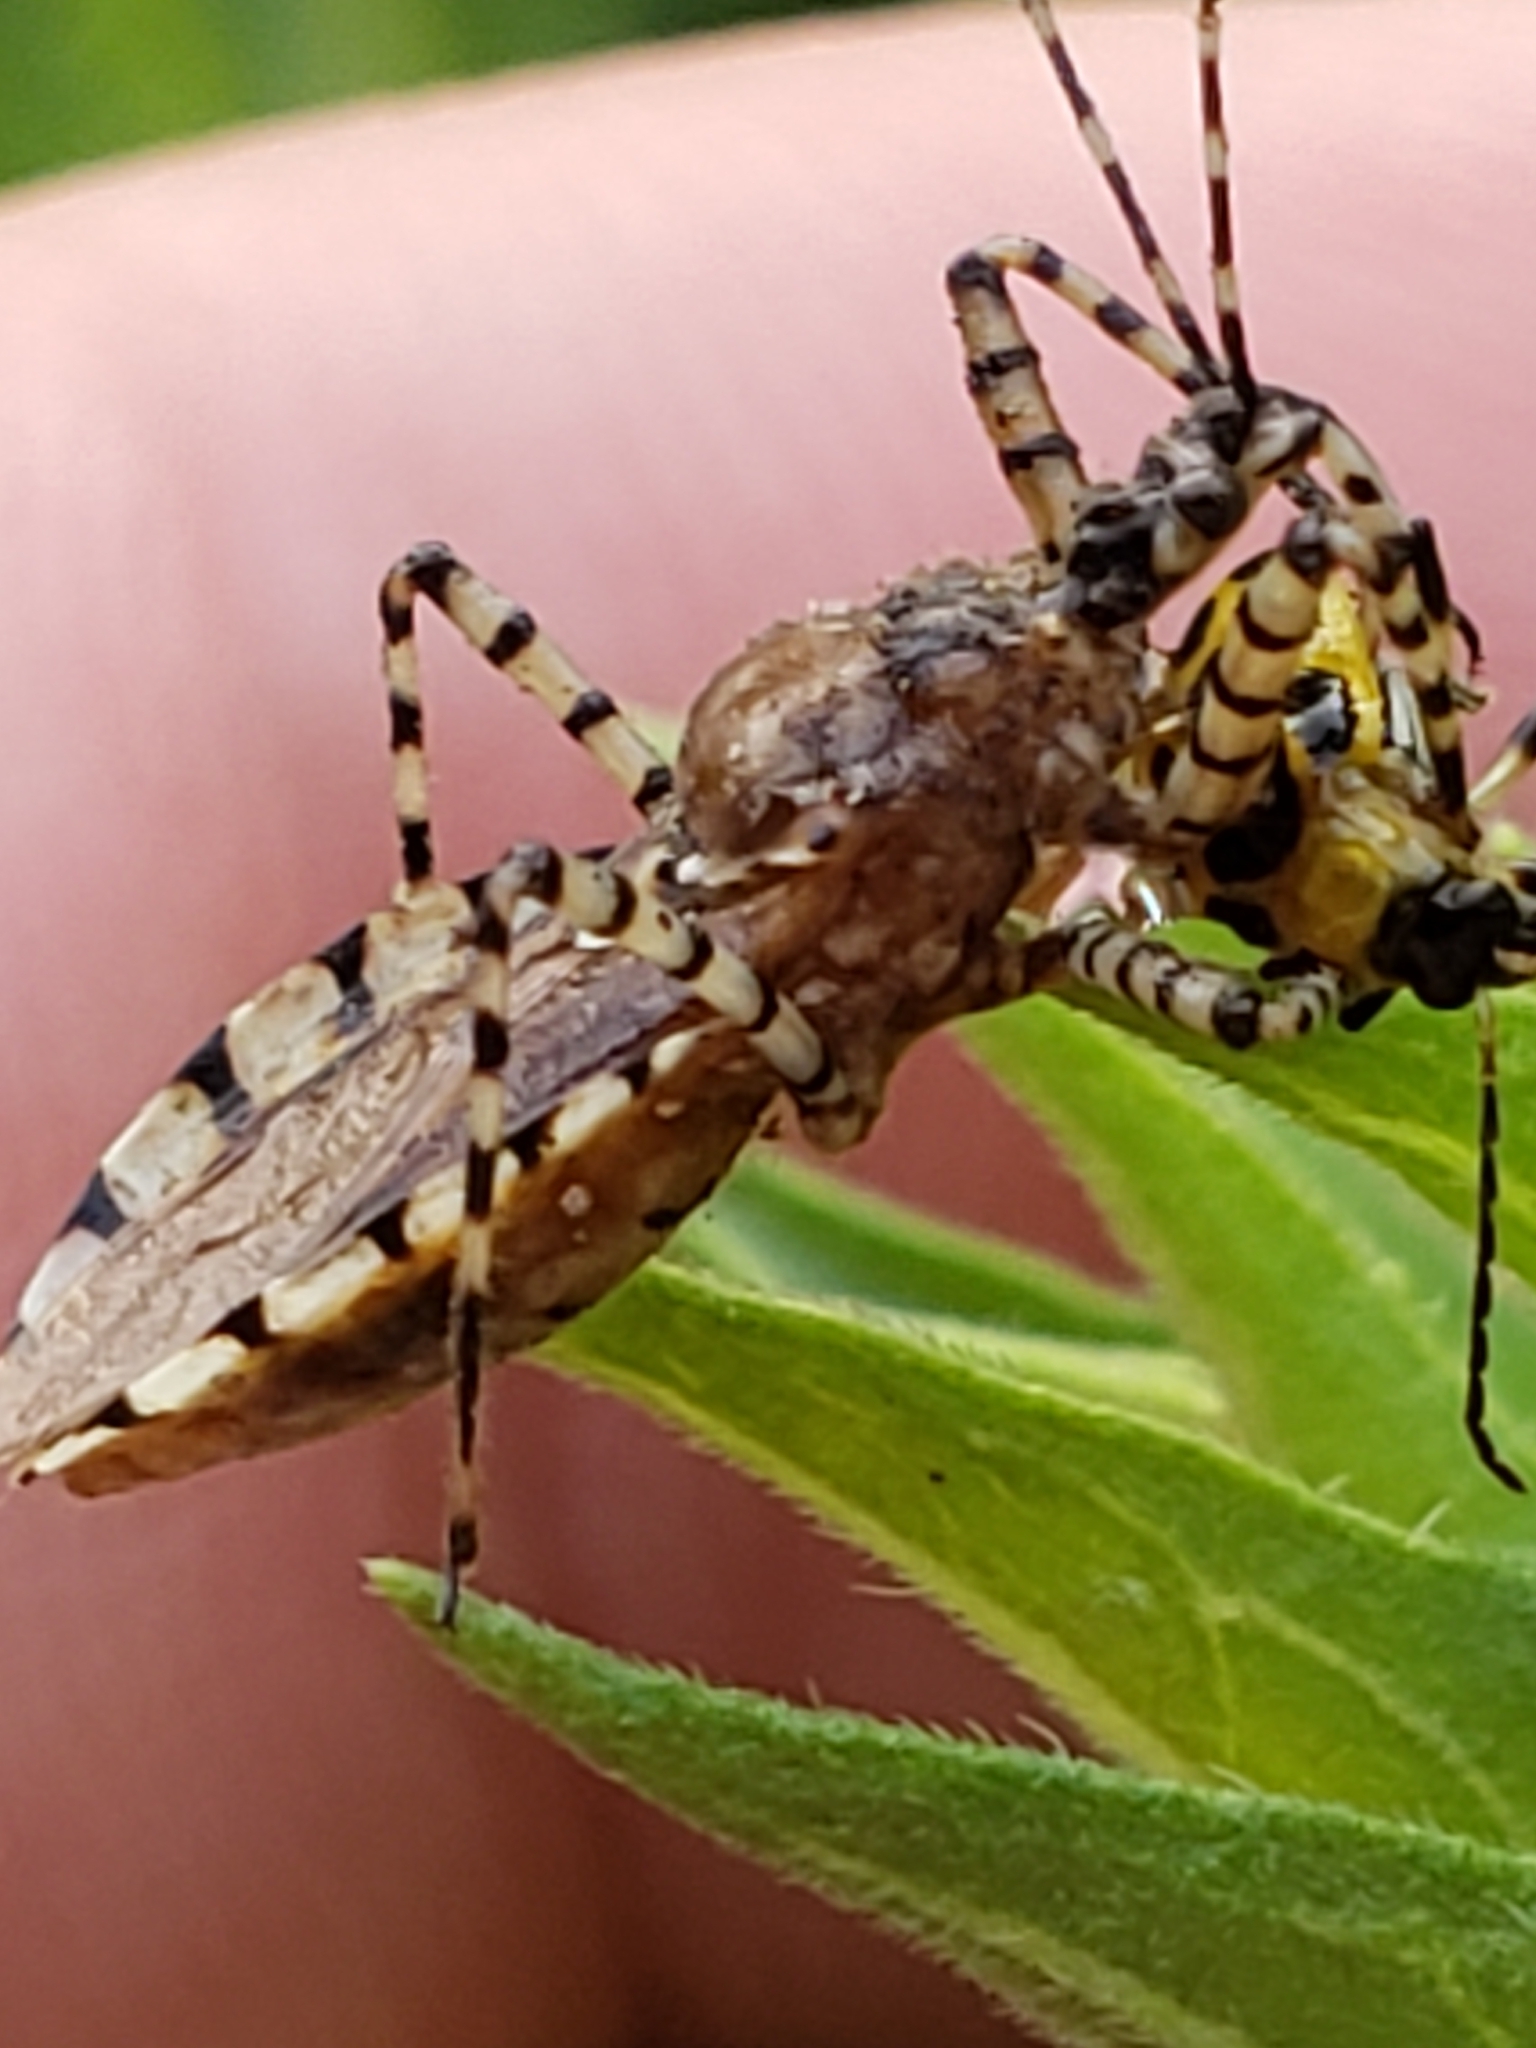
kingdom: Animalia
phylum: Arthropoda
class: Insecta
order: Hemiptera
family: Reduviidae
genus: Pselliopus
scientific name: Pselliopus cinctus
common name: Ringed assassin bug
